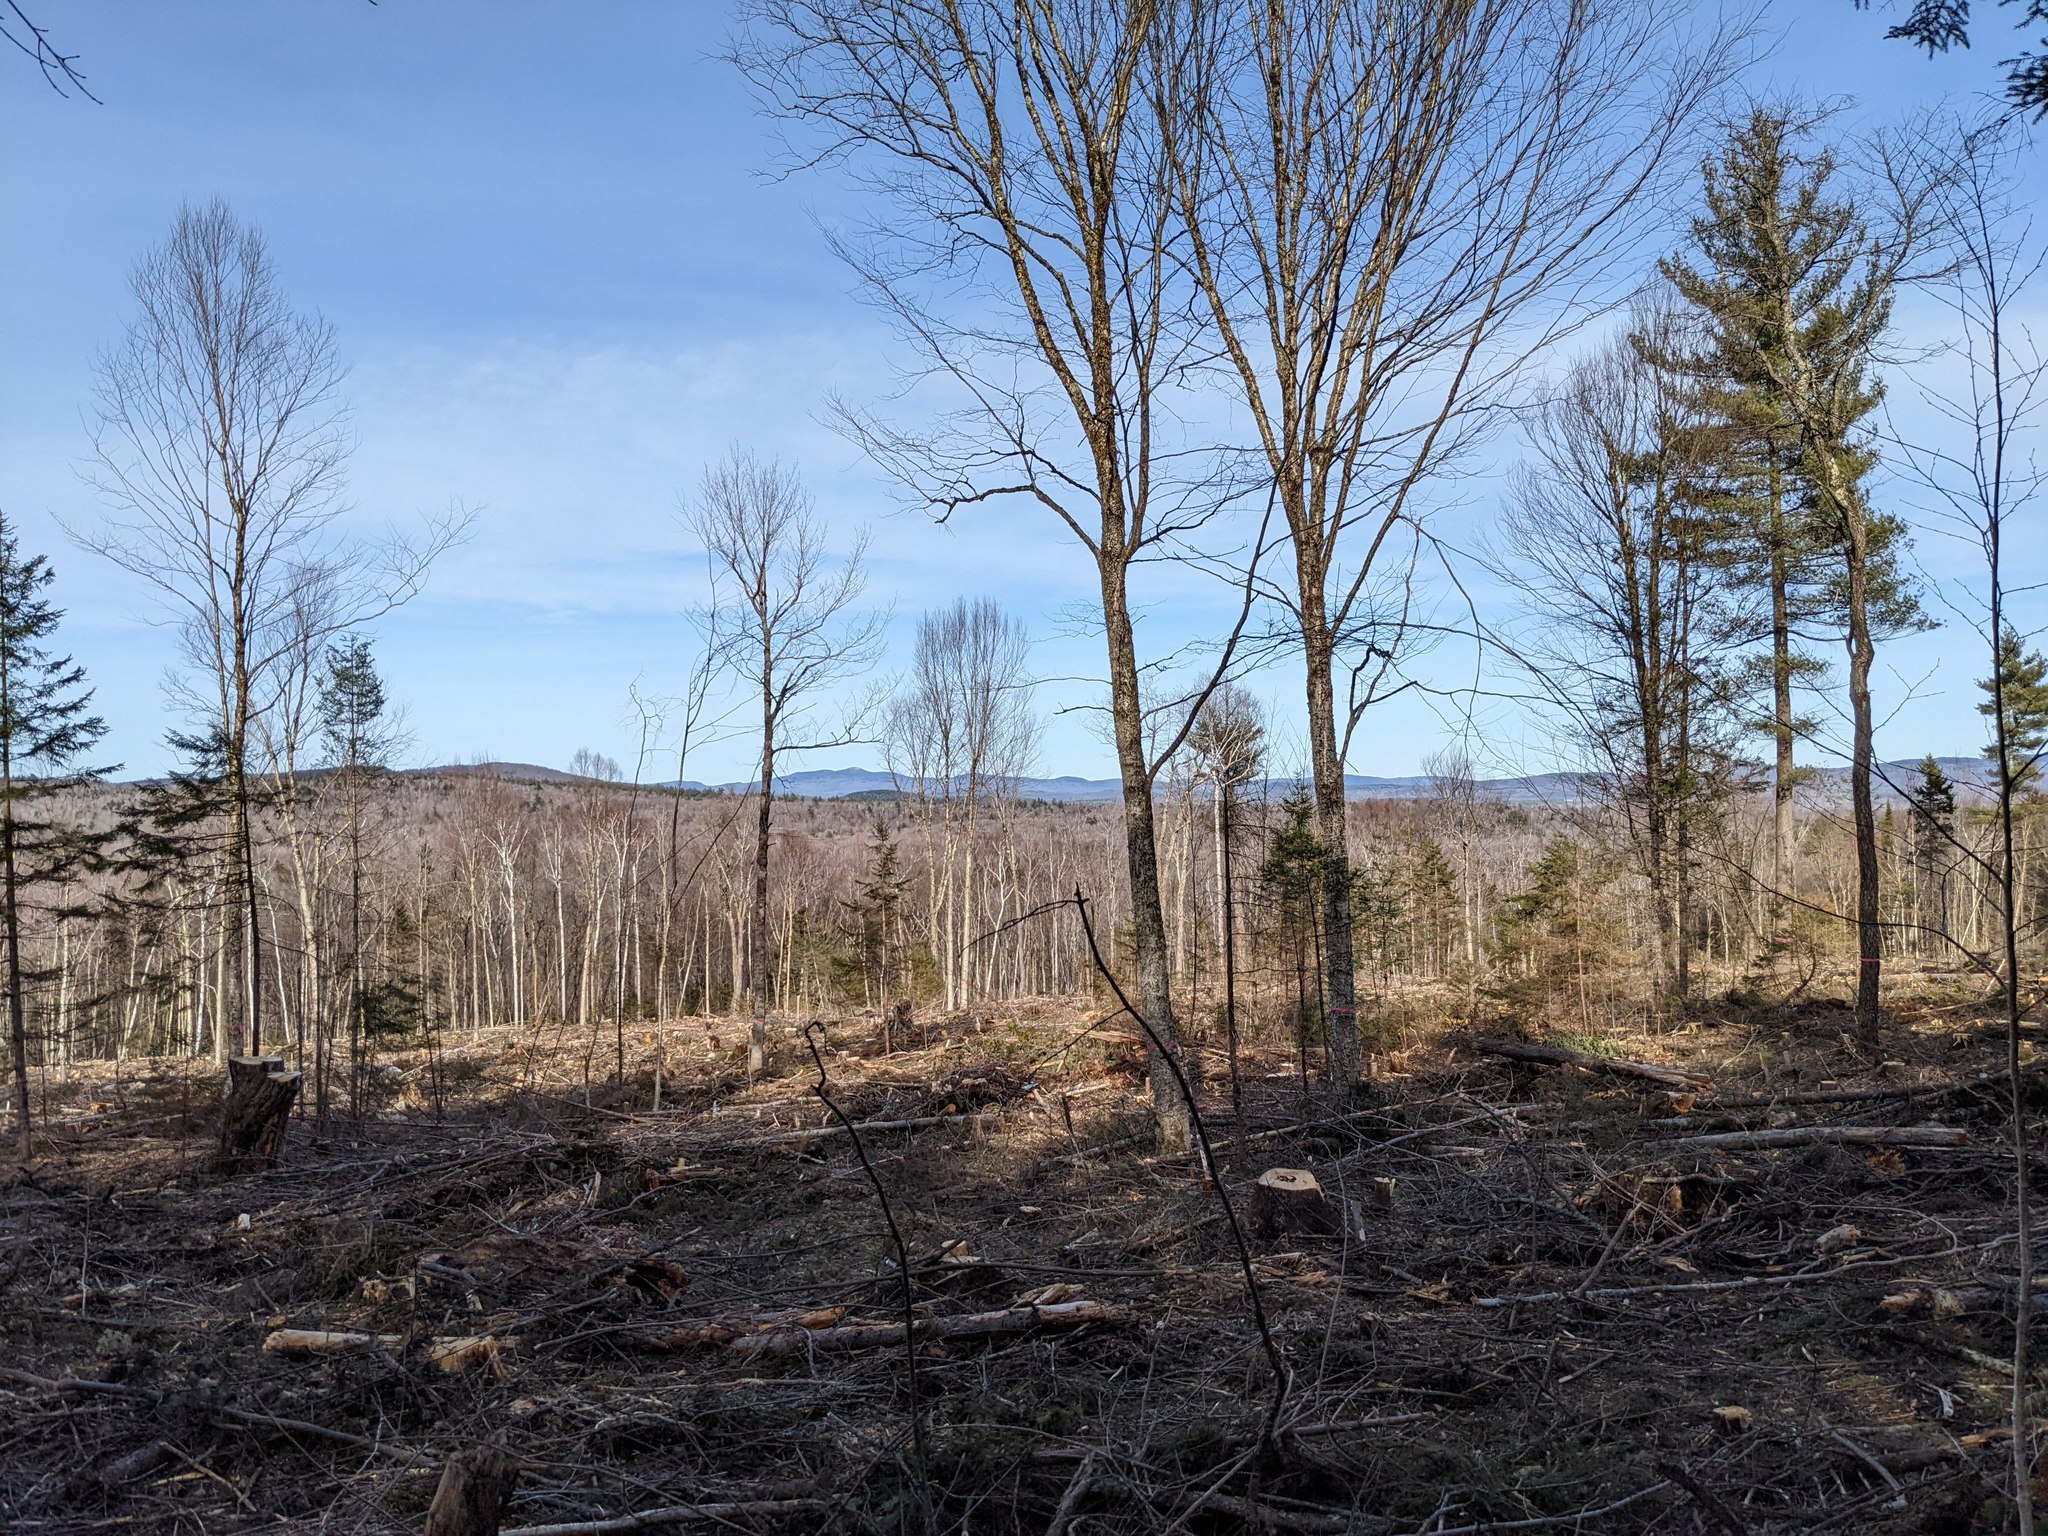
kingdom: Plantae
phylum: Tracheophyta
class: Pinopsida
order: Pinales
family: Pinaceae
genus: Pinus
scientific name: Pinus strobus
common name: Weymouth pine
